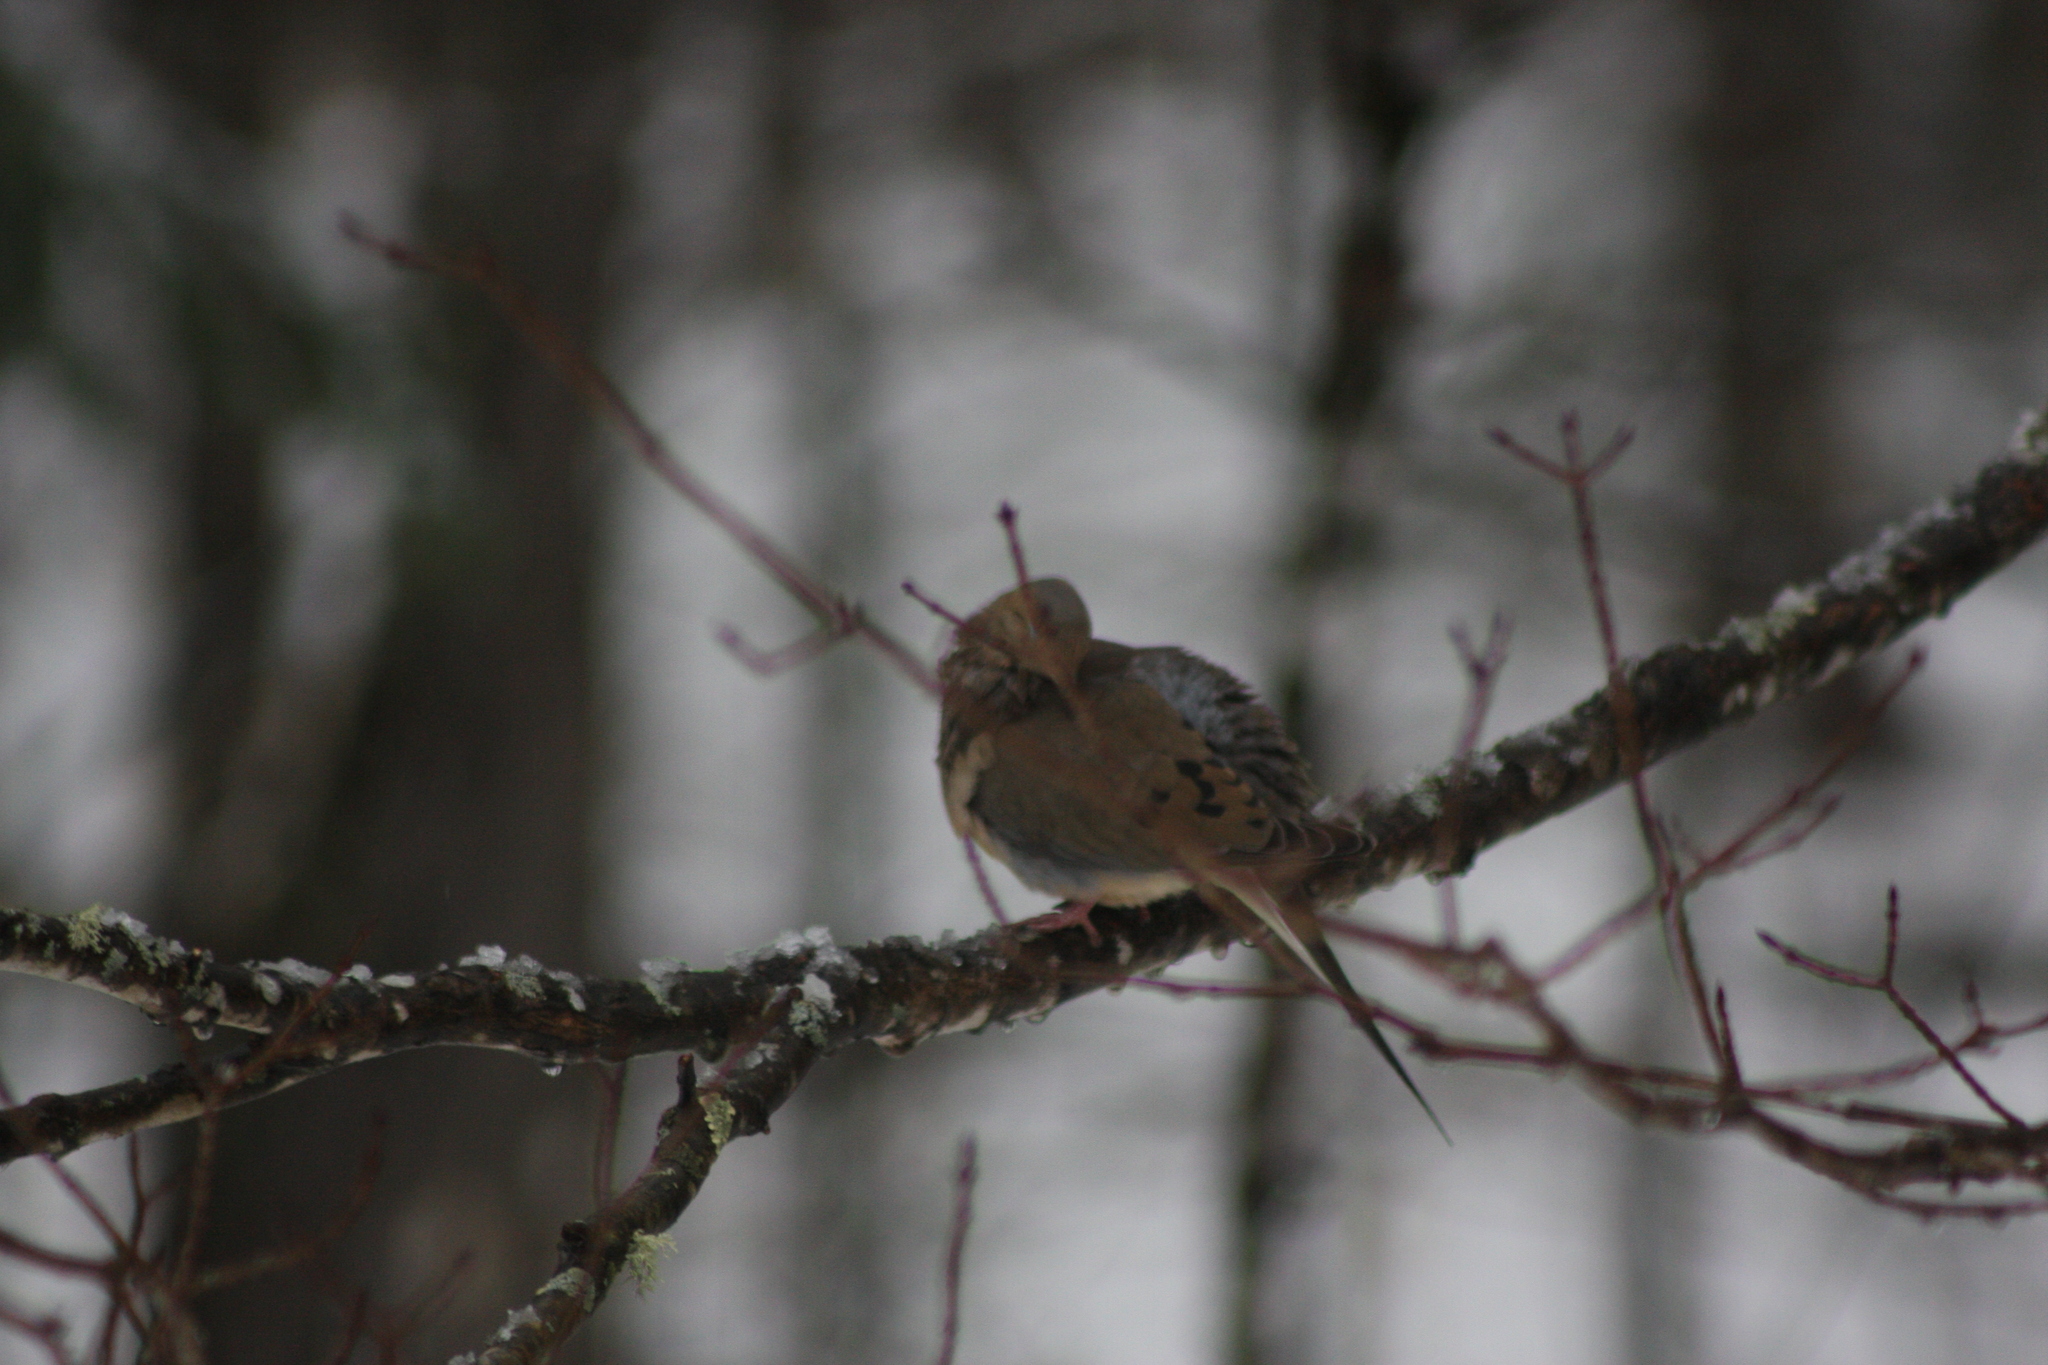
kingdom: Animalia
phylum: Chordata
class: Aves
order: Columbiformes
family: Columbidae
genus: Zenaida
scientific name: Zenaida macroura
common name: Mourning dove
